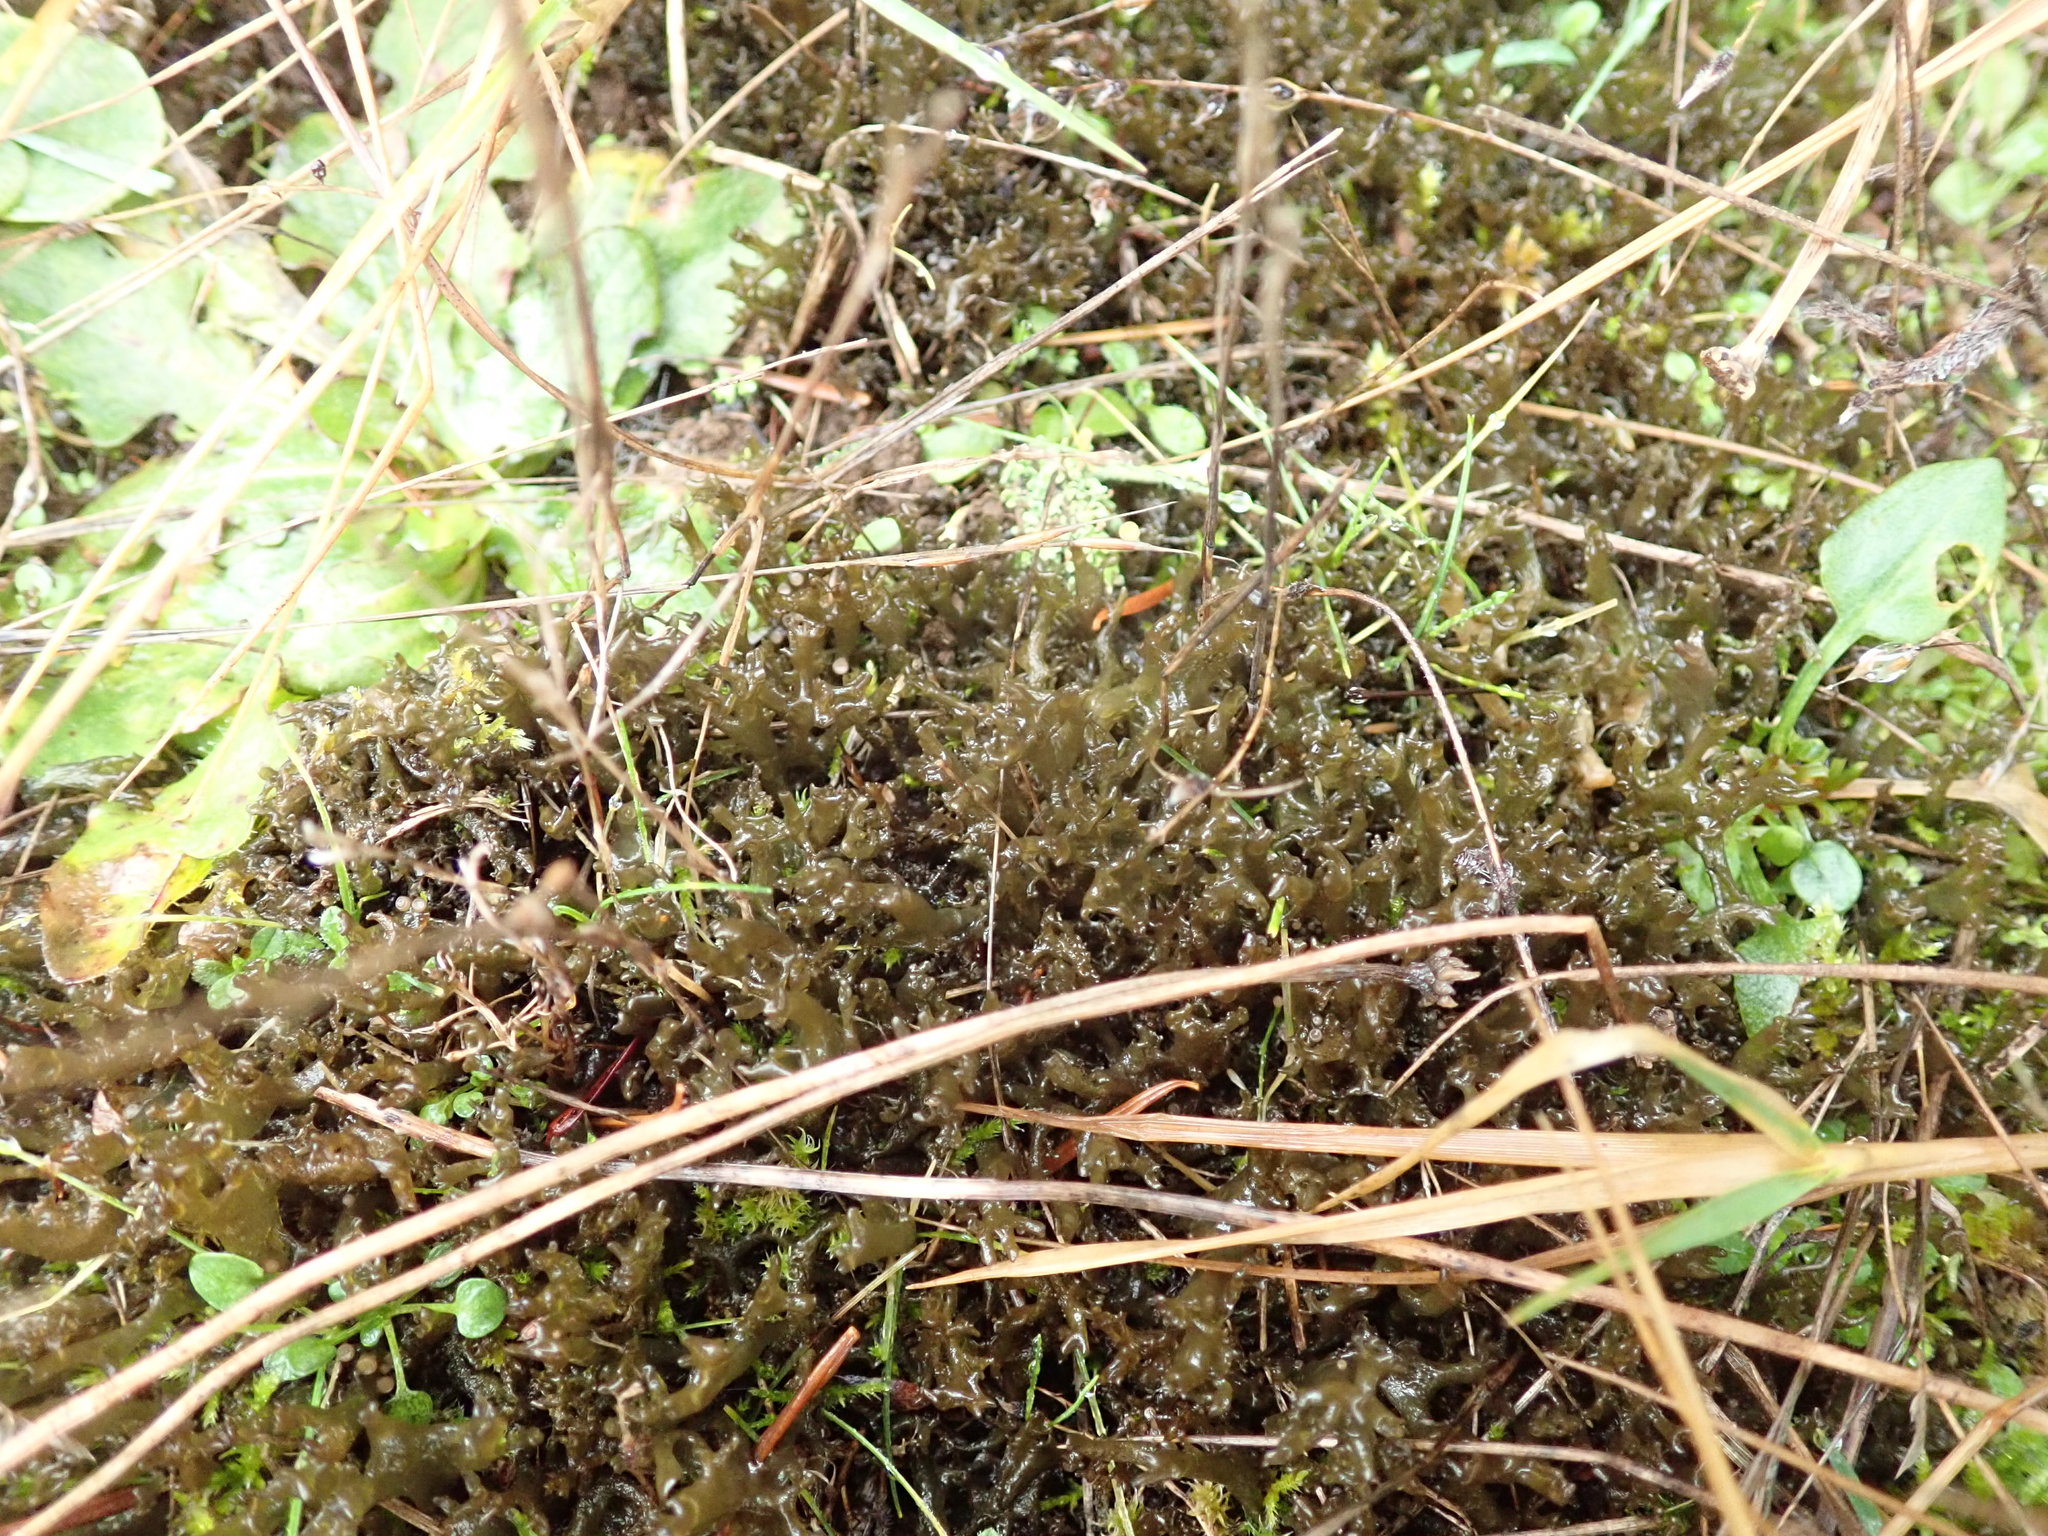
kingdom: Fungi
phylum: Ascomycota
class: Lecanoromycetes
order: Peltigerales
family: Collemataceae
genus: Scytinium
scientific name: Scytinium palmatum
